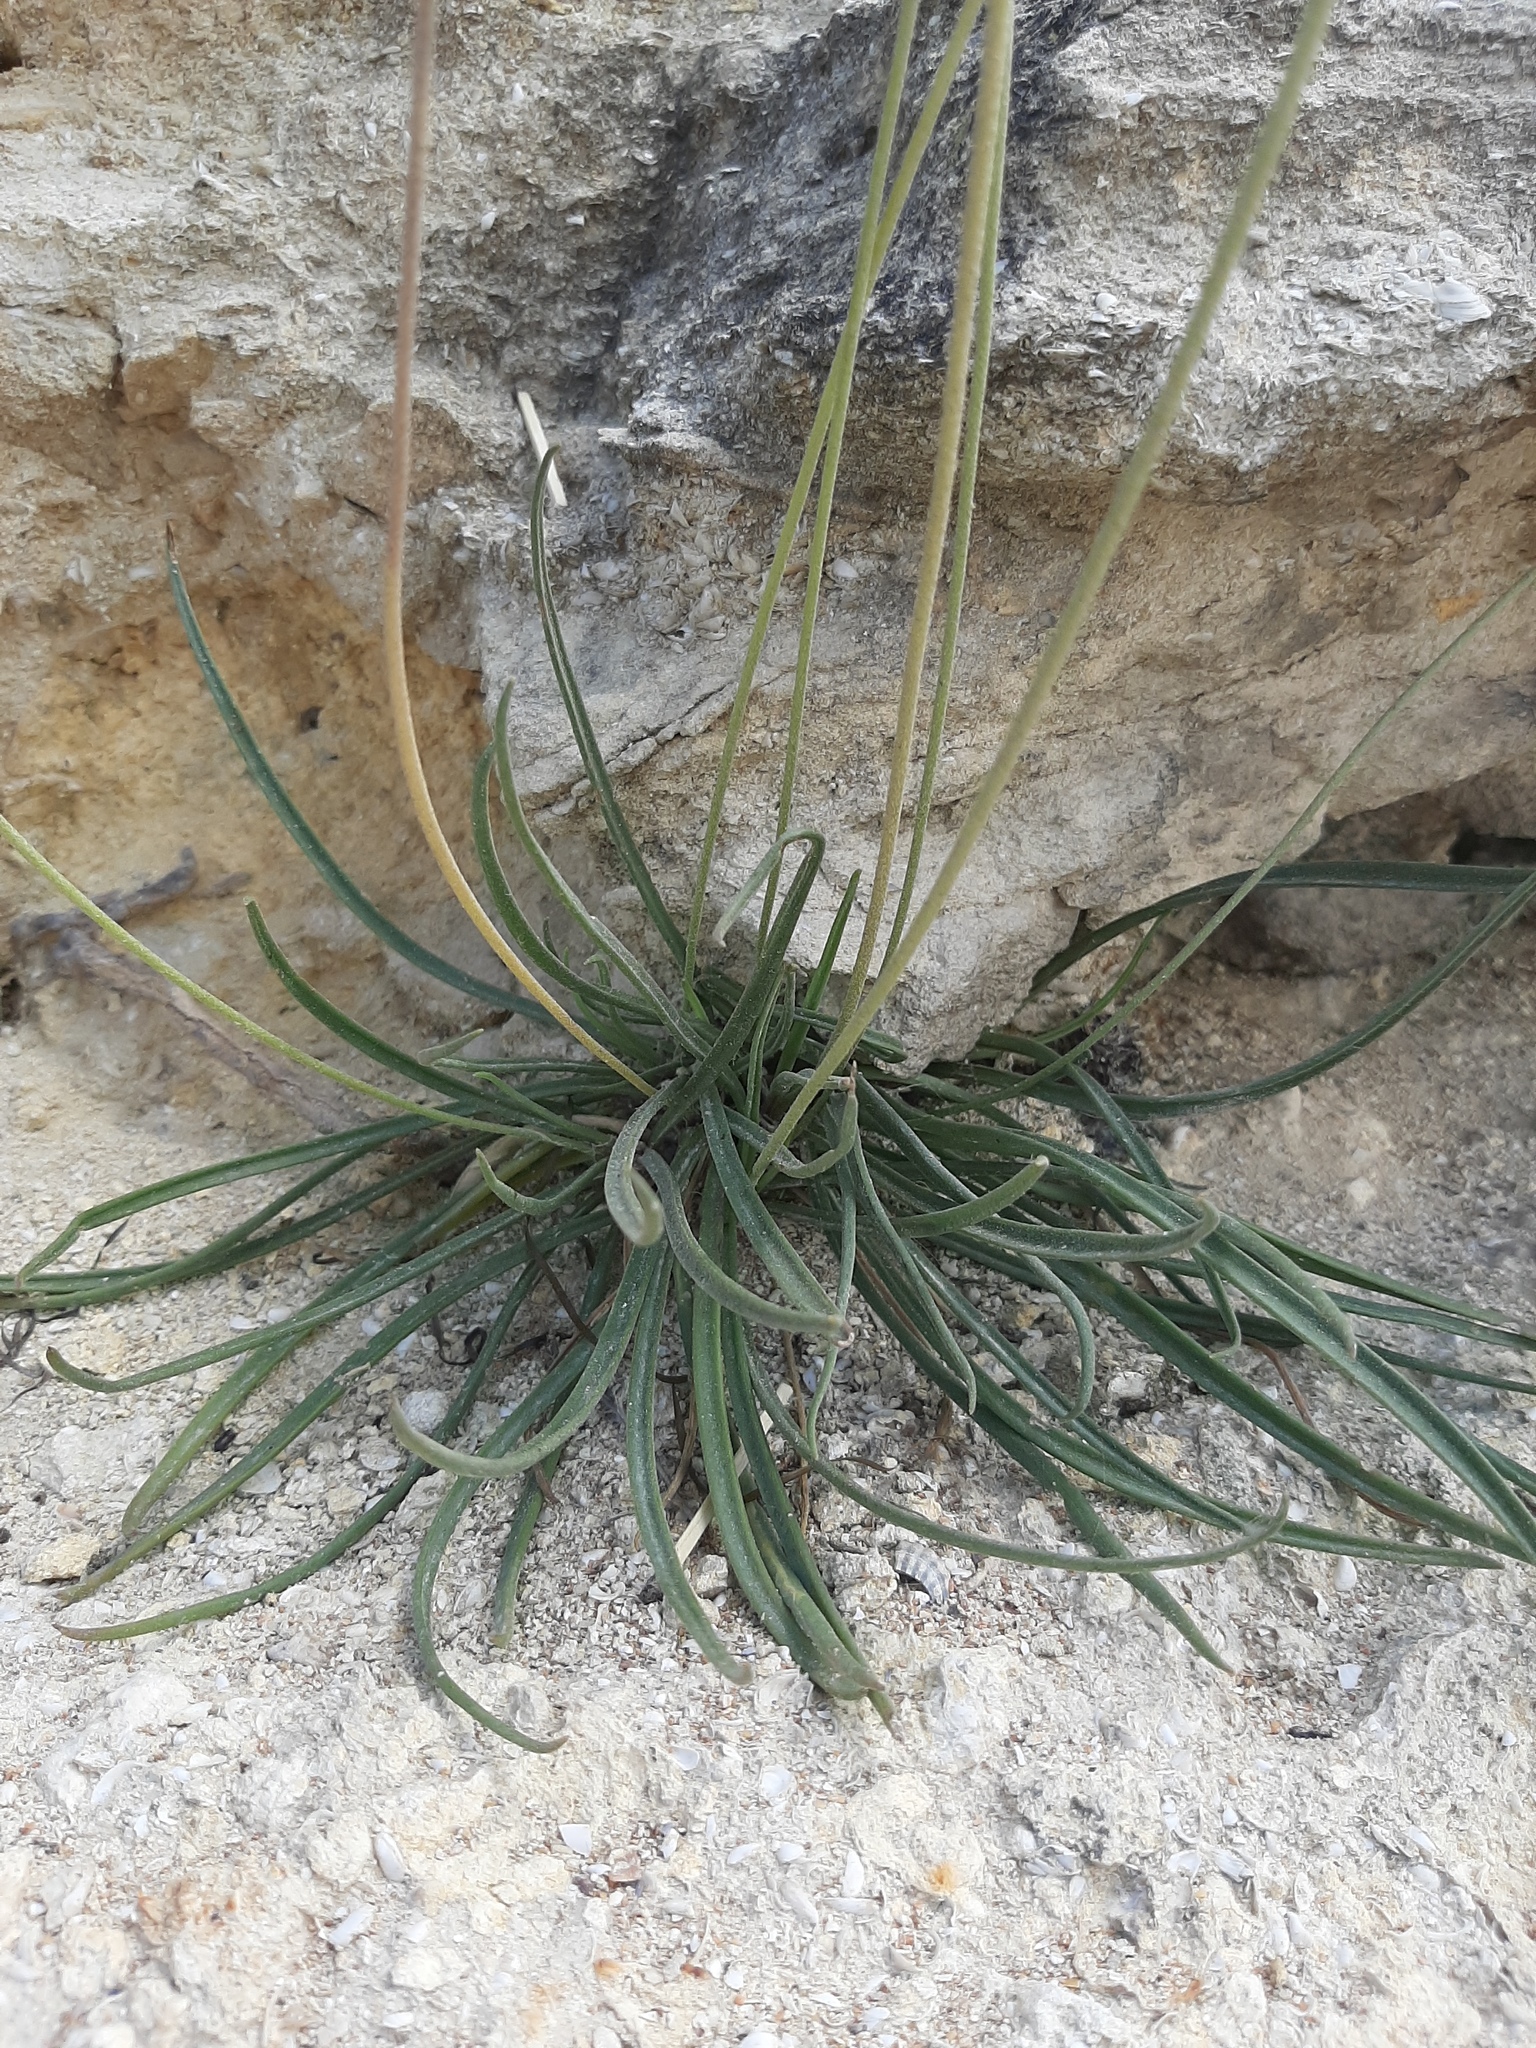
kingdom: Plantae
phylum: Tracheophyta
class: Magnoliopsida
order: Lamiales
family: Plantaginaceae
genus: Plantago
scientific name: Plantago salsa
